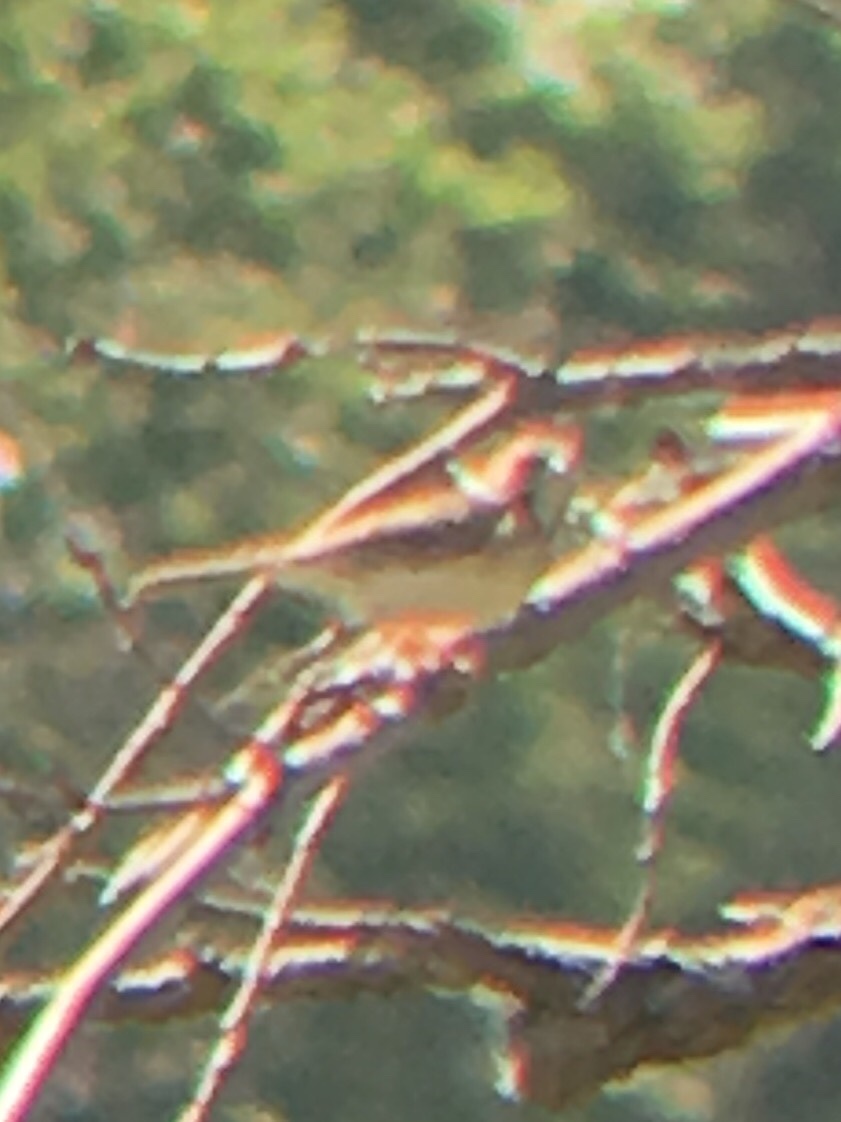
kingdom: Animalia
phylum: Chordata
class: Aves
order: Passeriformes
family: Passerellidae
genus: Pooecetes
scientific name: Pooecetes gramineus
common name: Vesper sparrow
